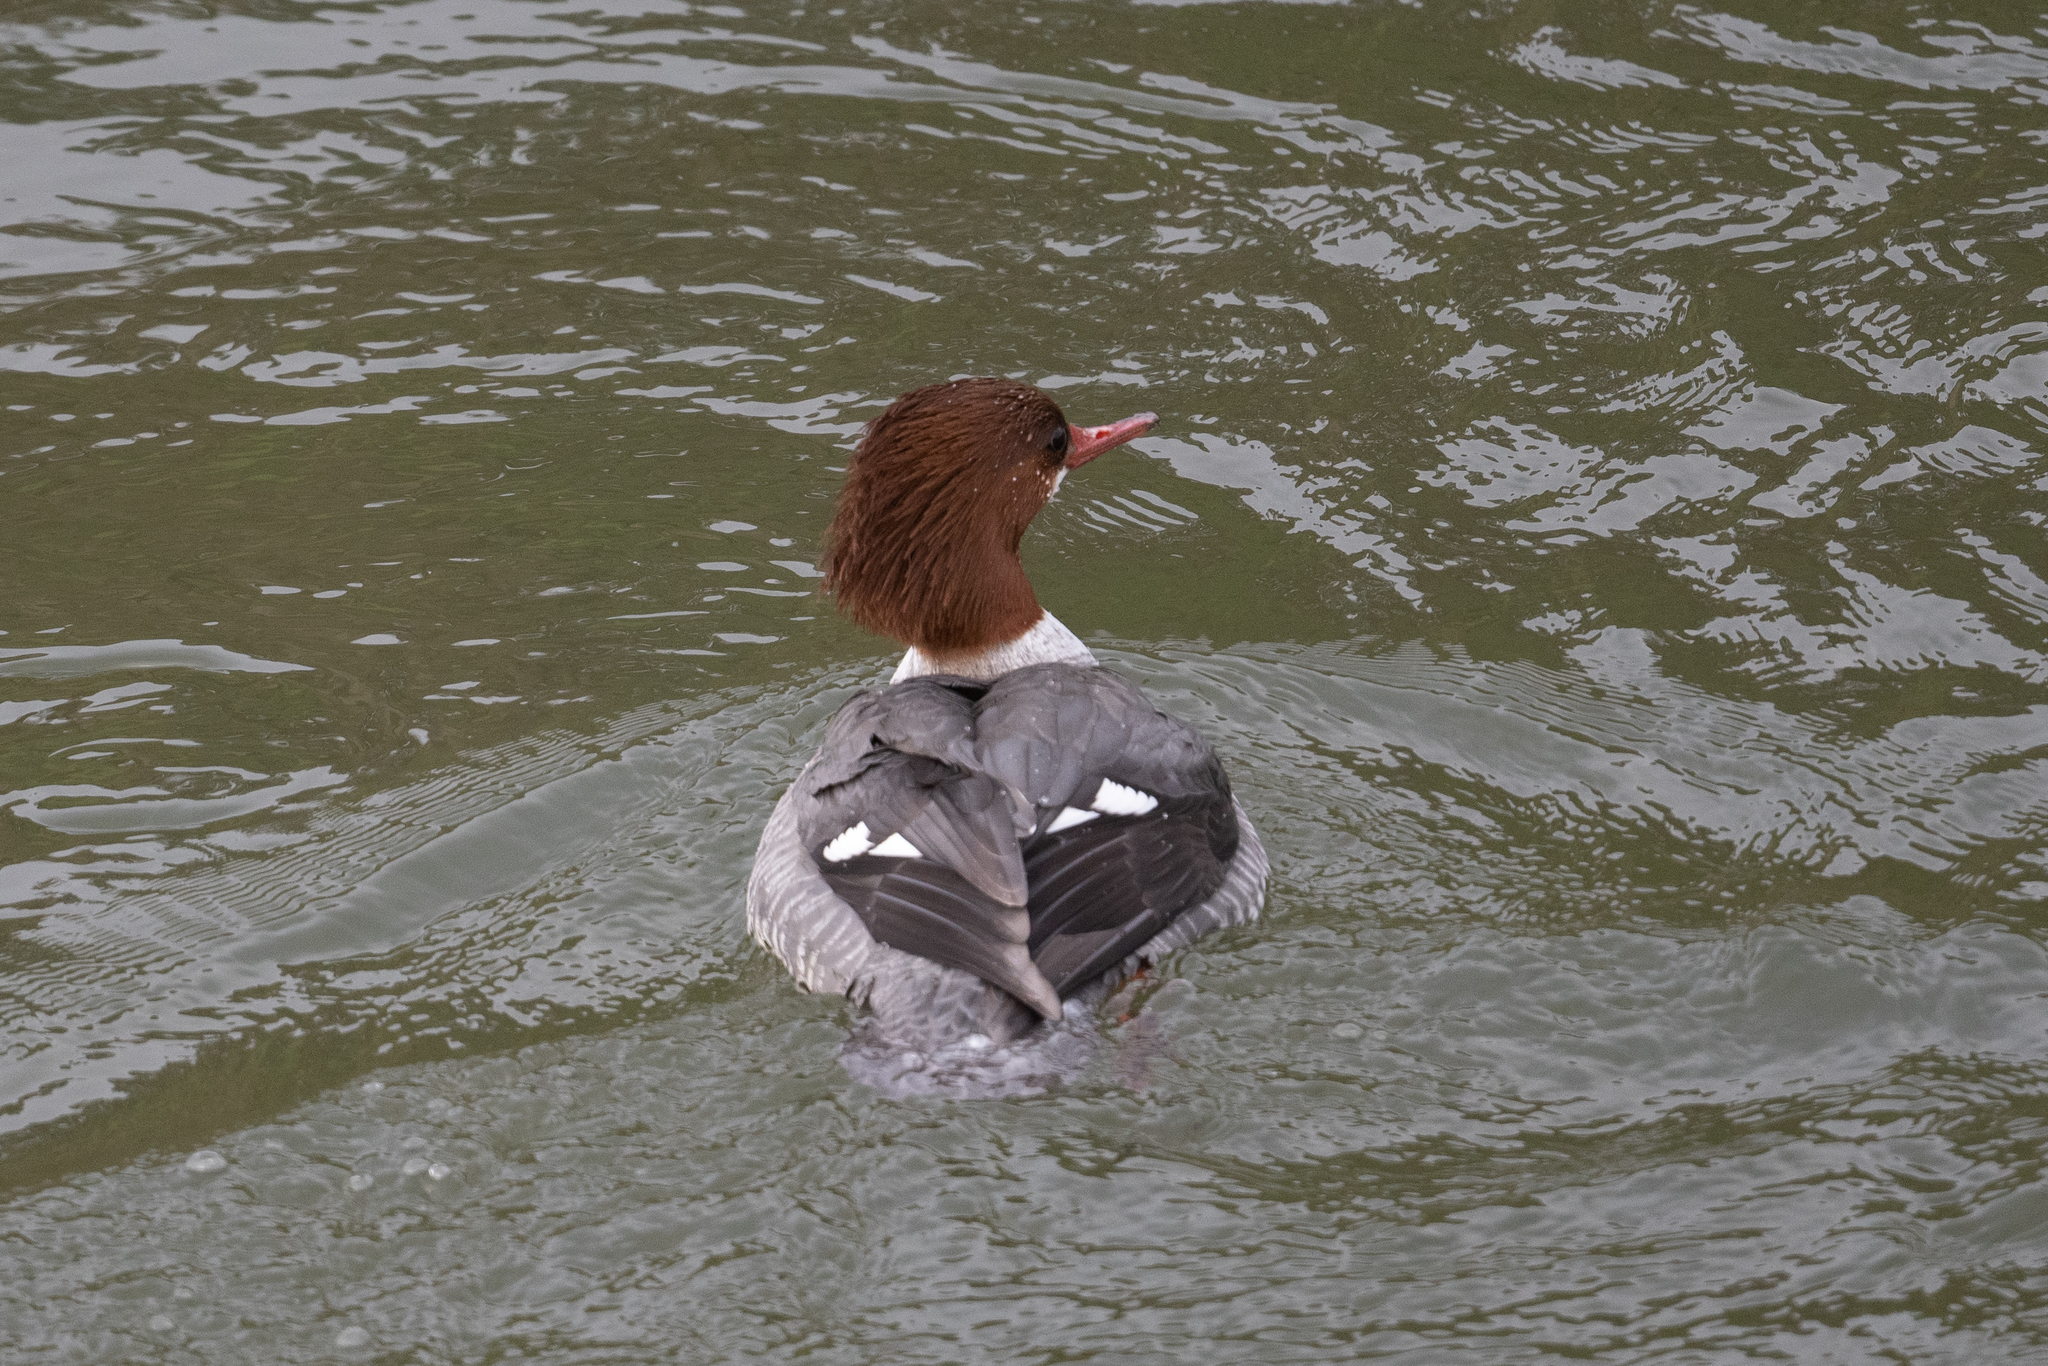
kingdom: Animalia
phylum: Chordata
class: Aves
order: Anseriformes
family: Anatidae
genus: Mergus
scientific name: Mergus merganser
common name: Common merganser
